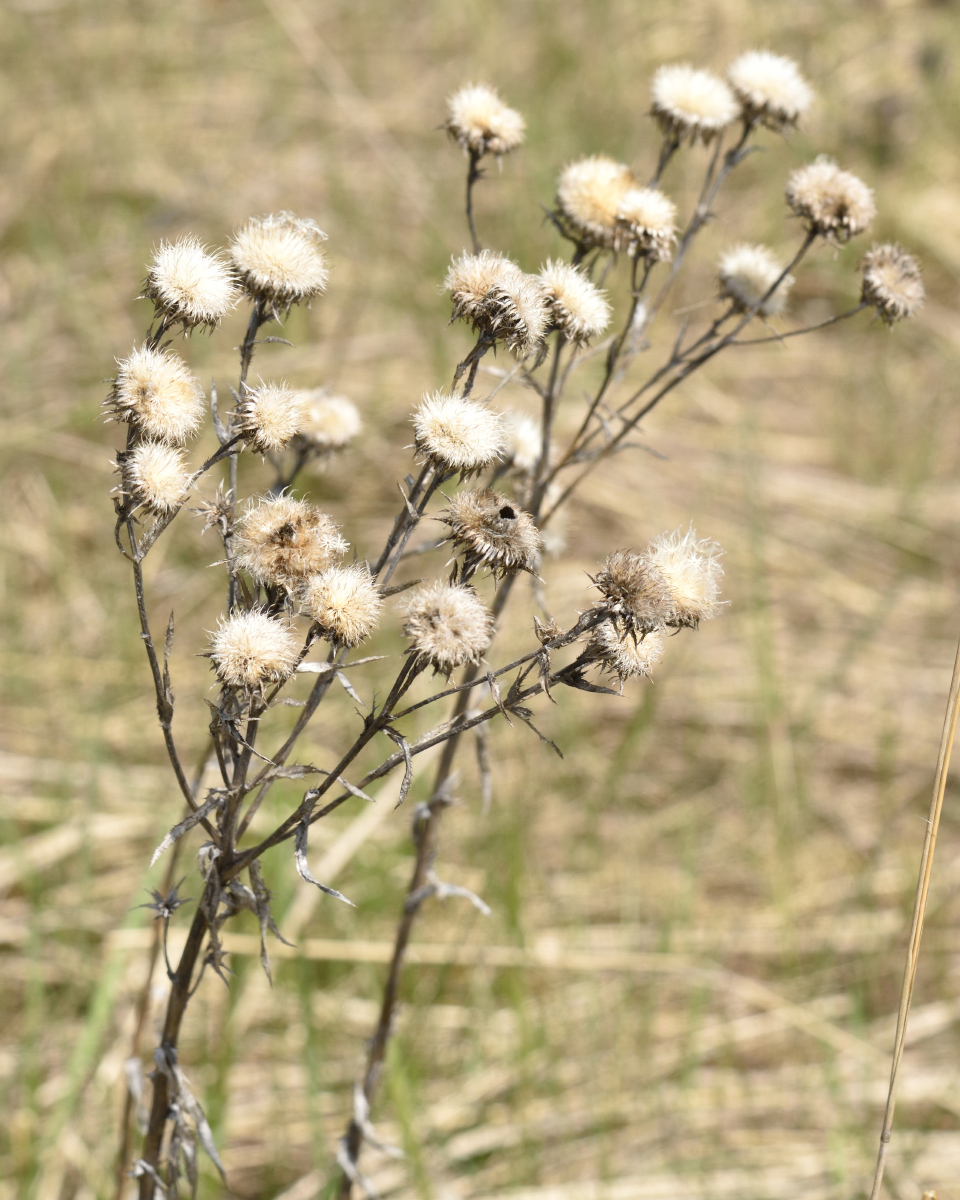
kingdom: Plantae
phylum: Tracheophyta
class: Magnoliopsida
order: Asterales
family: Asteraceae
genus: Carlina
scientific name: Carlina biebersteinii
